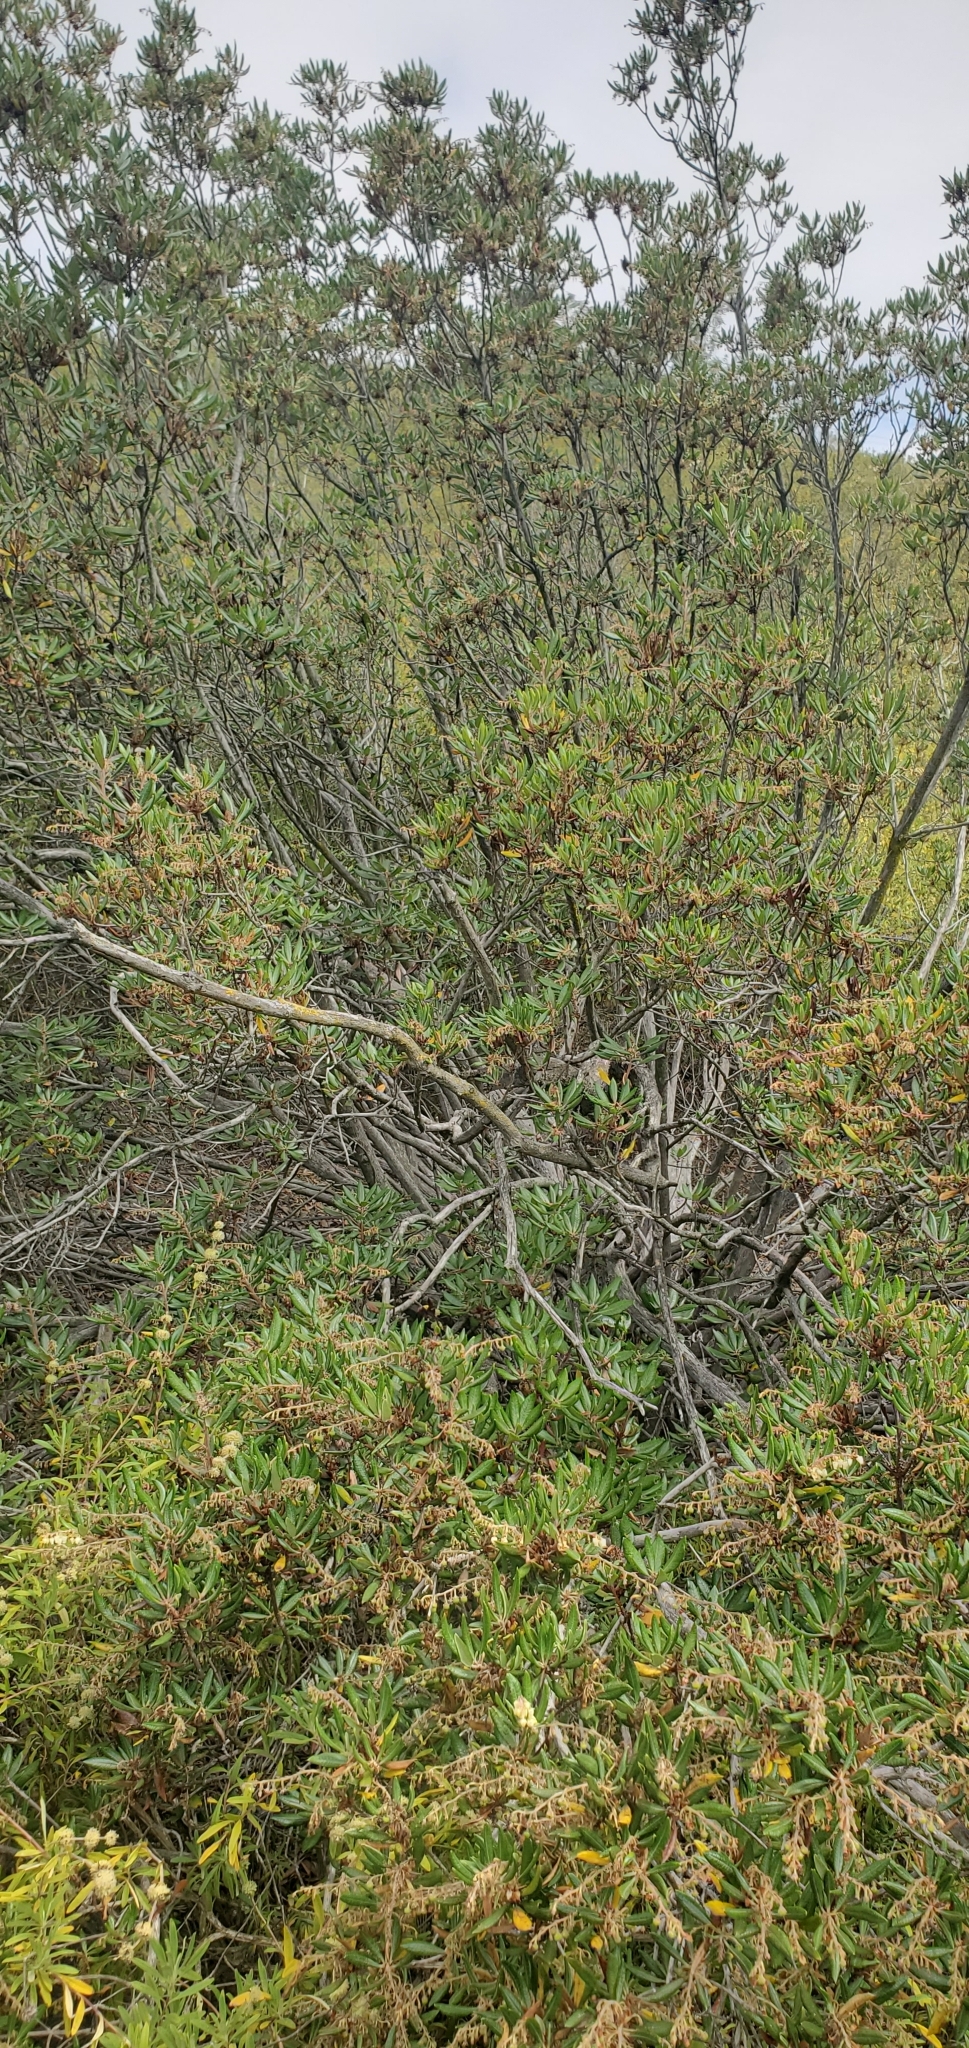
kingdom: Plantae
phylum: Tracheophyta
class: Magnoliopsida
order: Ericales
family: Ericaceae
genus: Comarostaphylis
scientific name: Comarostaphylis diversifolia
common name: Summer-holly
